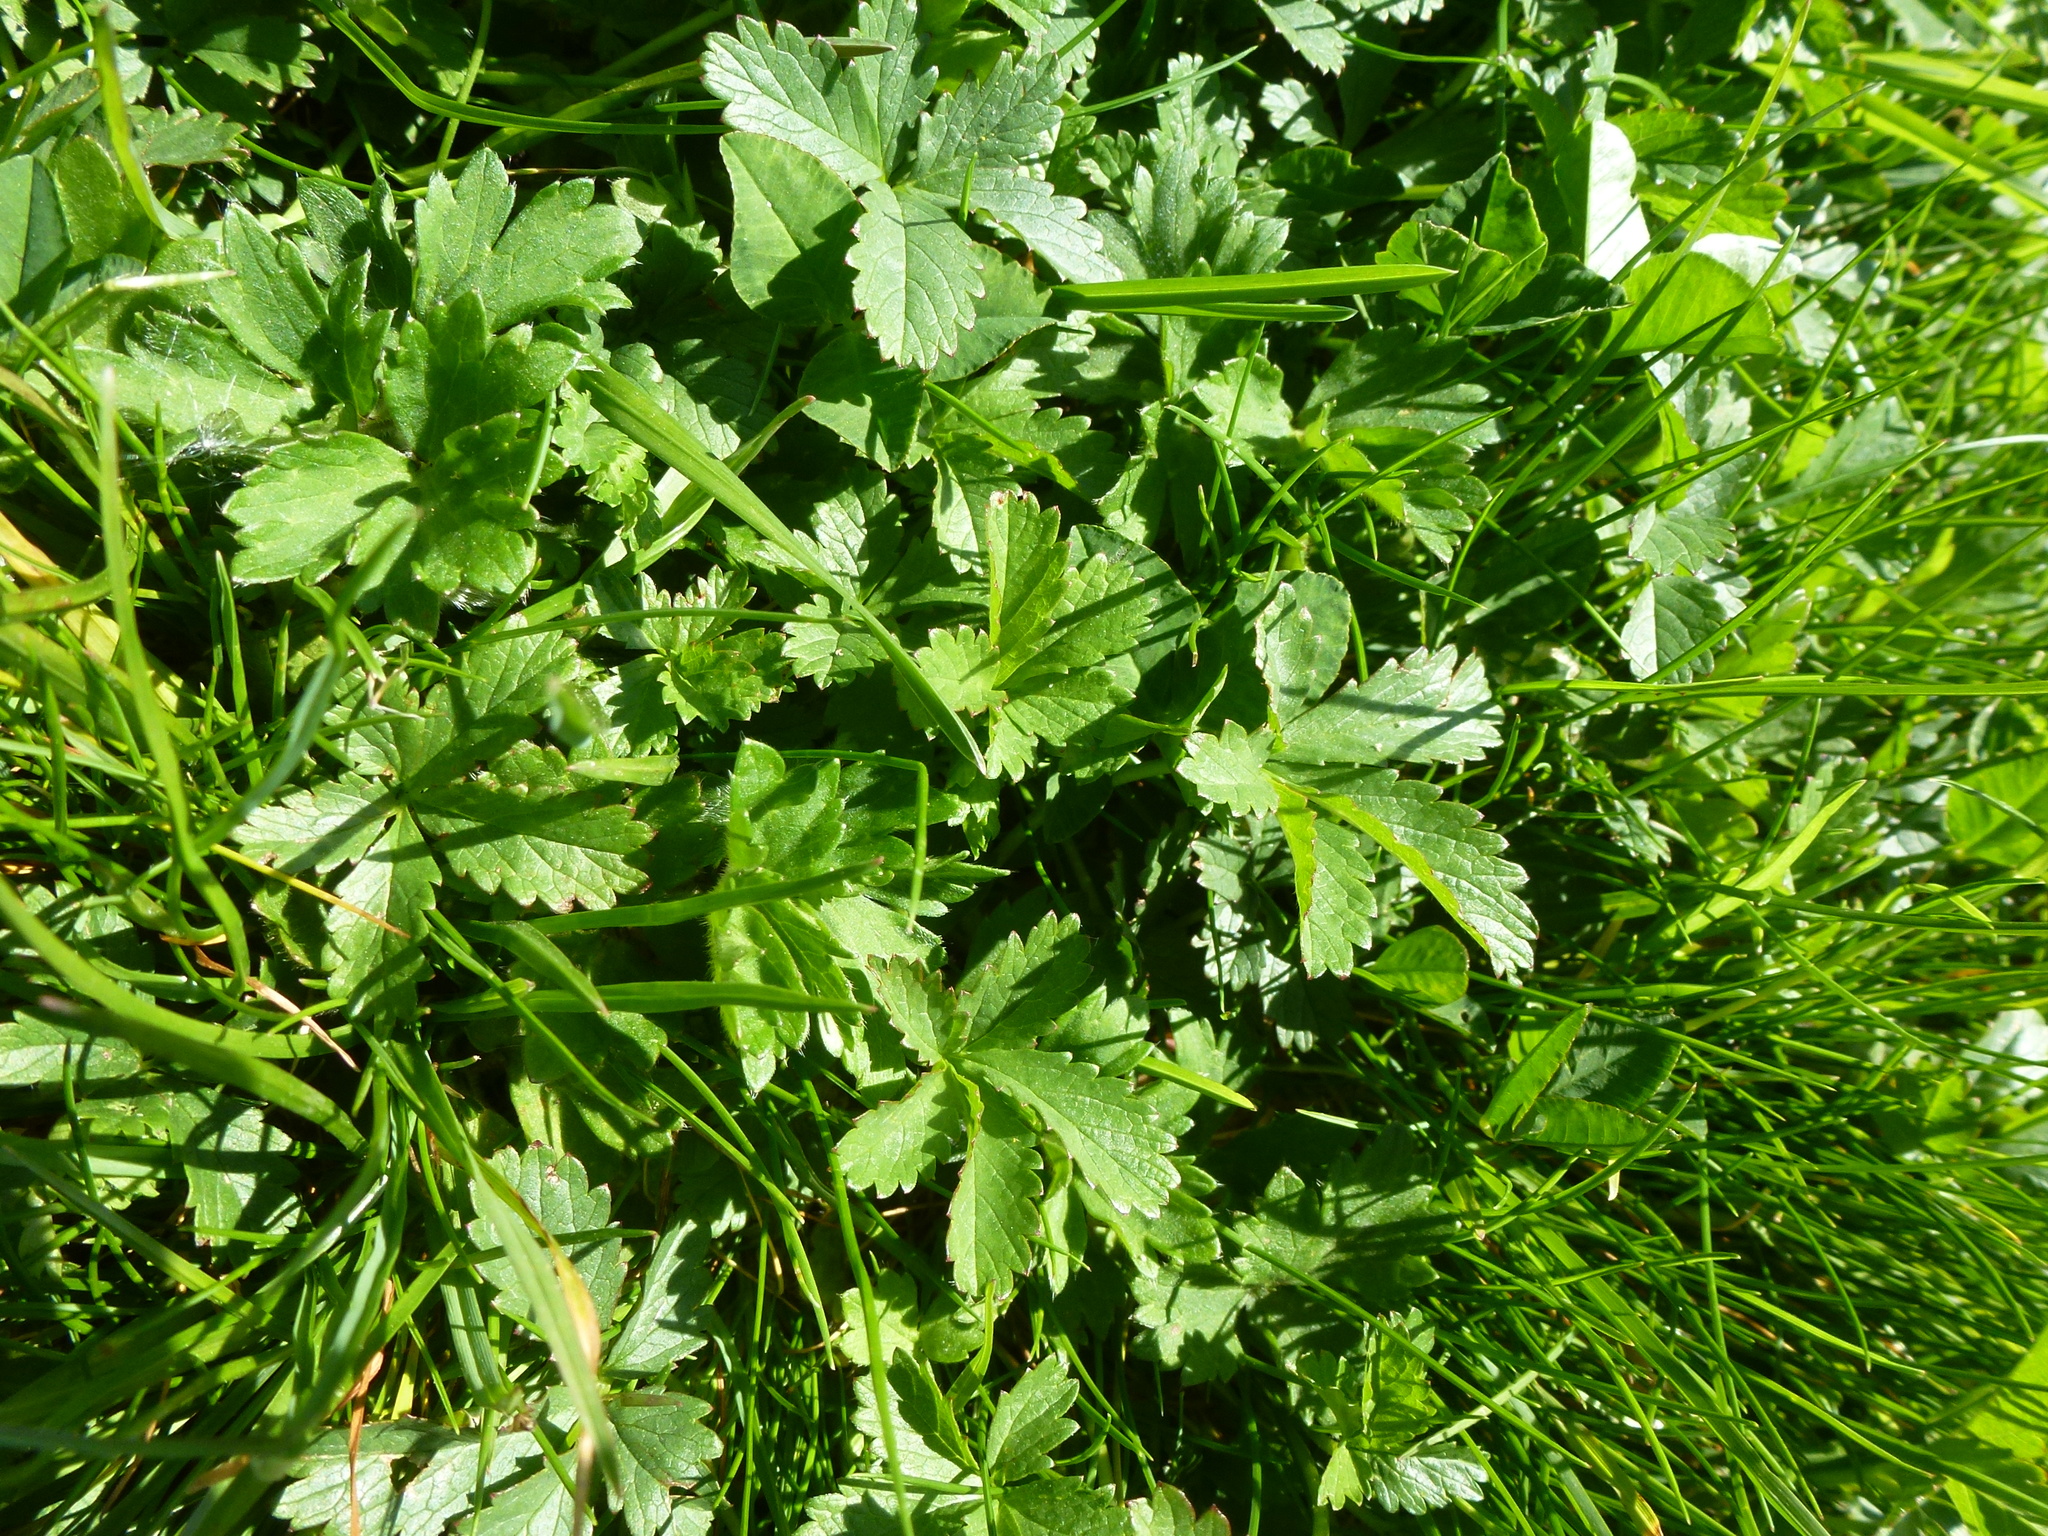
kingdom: Plantae
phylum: Tracheophyta
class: Magnoliopsida
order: Rosales
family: Rosaceae
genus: Potentilla
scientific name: Potentilla reptans
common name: Creeping cinquefoil
